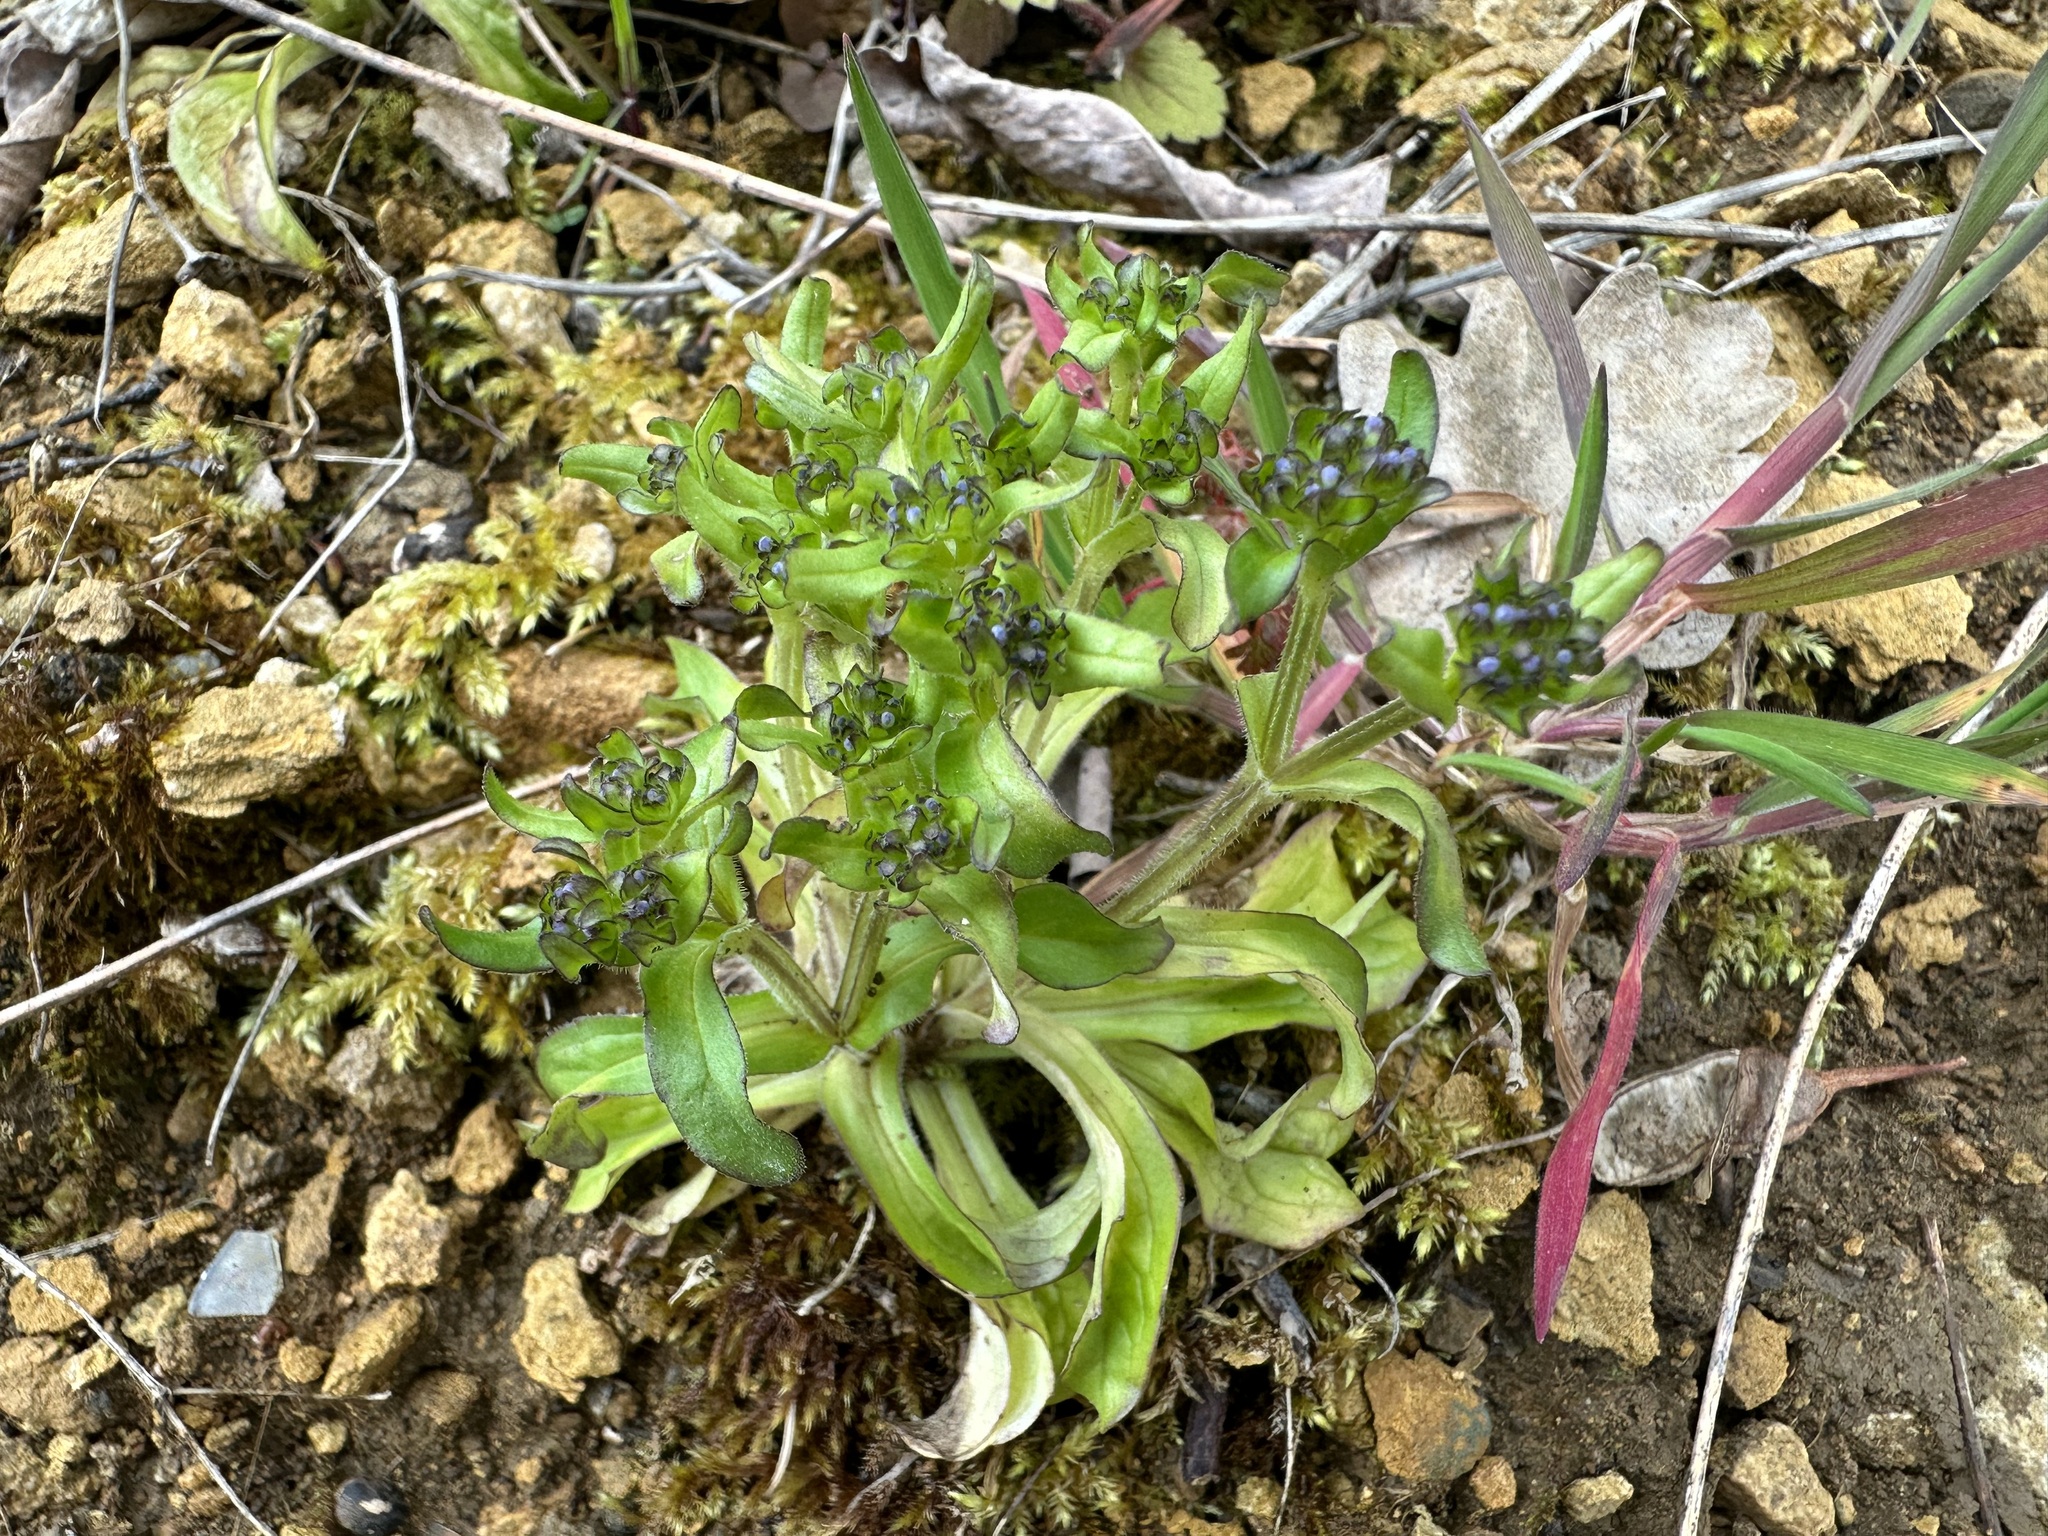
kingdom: Plantae
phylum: Tracheophyta
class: Magnoliopsida
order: Dipsacales
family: Caprifoliaceae
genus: Valerianella
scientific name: Valerianella locusta
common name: Common cornsalad
